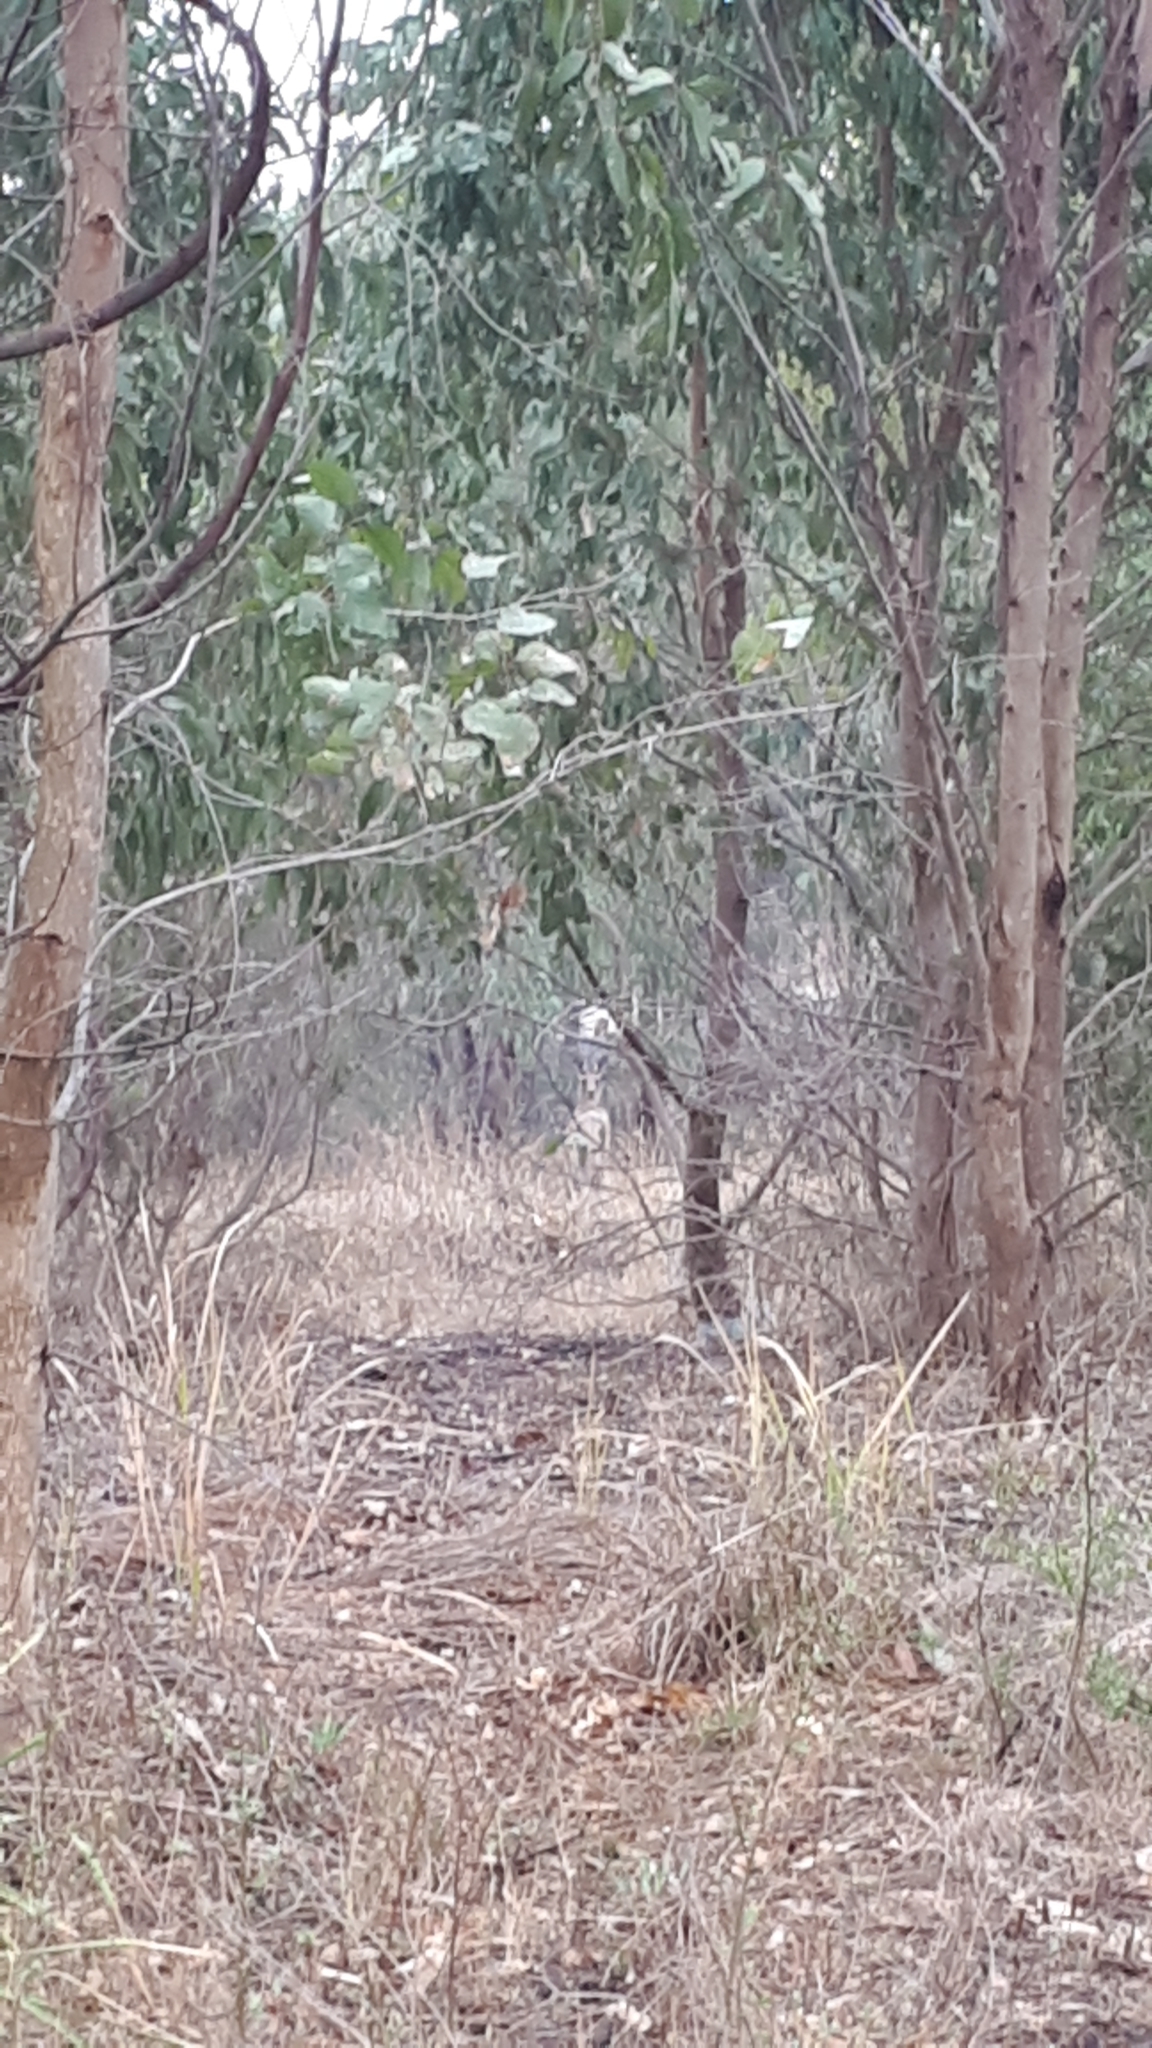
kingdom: Animalia
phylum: Chordata
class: Mammalia
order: Diprotodontia
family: Macropodidae
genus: Macropus
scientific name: Macropus giganteus
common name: Eastern grey kangaroo
